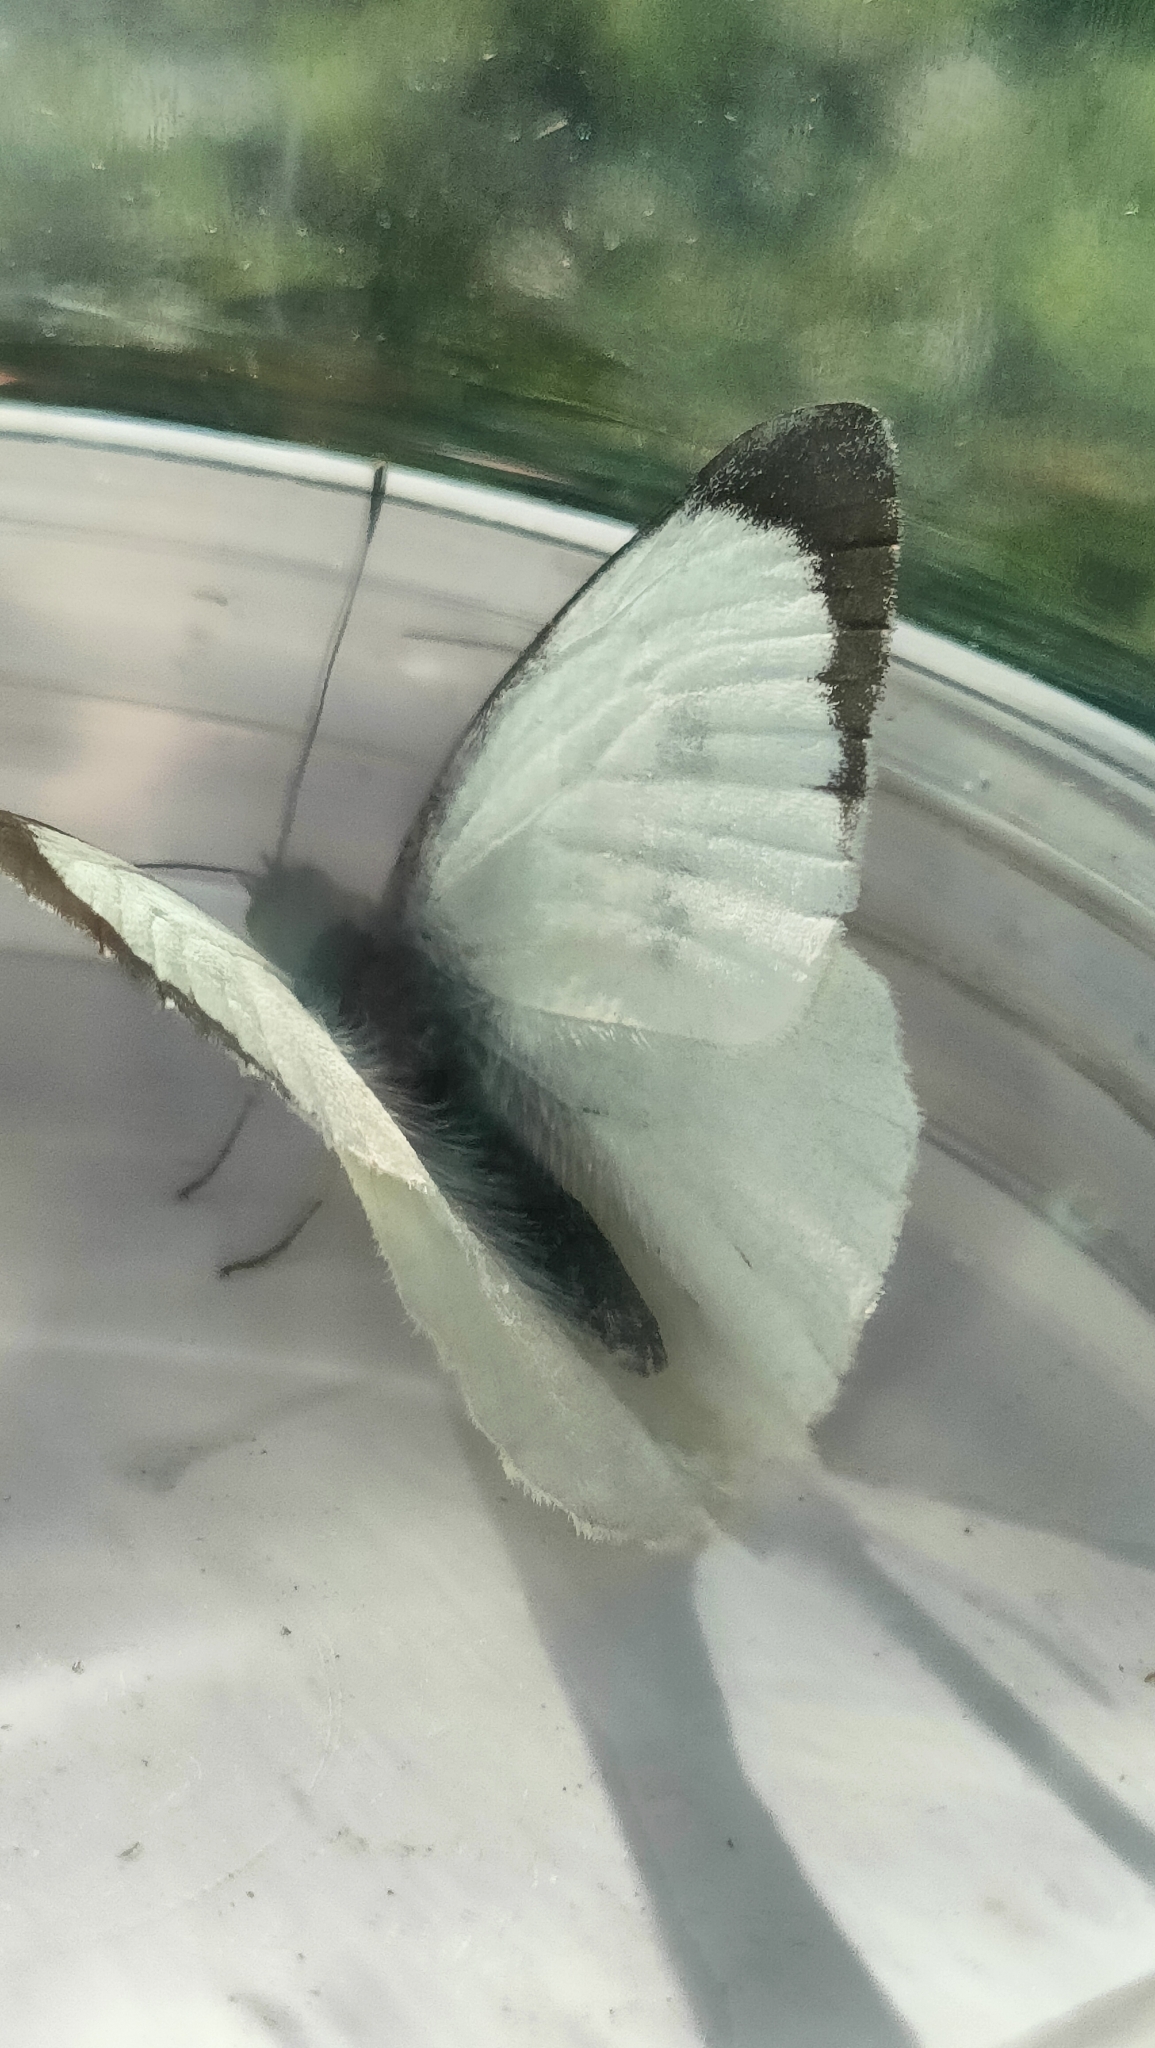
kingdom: Animalia
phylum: Arthropoda
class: Insecta
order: Lepidoptera
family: Pieridae
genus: Pieris
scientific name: Pieris brassicae
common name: Large white
